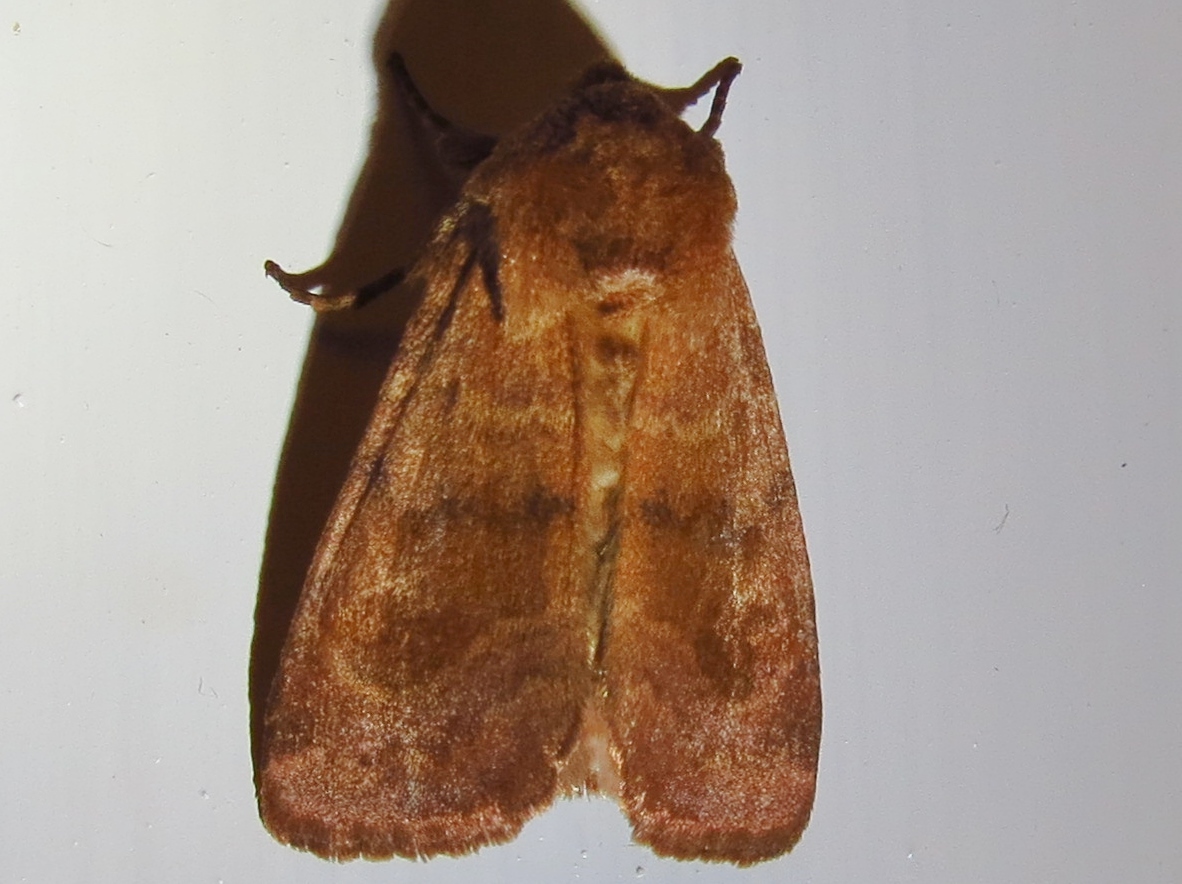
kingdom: Animalia
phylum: Arthropoda
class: Insecta
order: Lepidoptera
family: Noctuidae
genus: Nephelodes
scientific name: Nephelodes minians
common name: Bronzed cutworm
